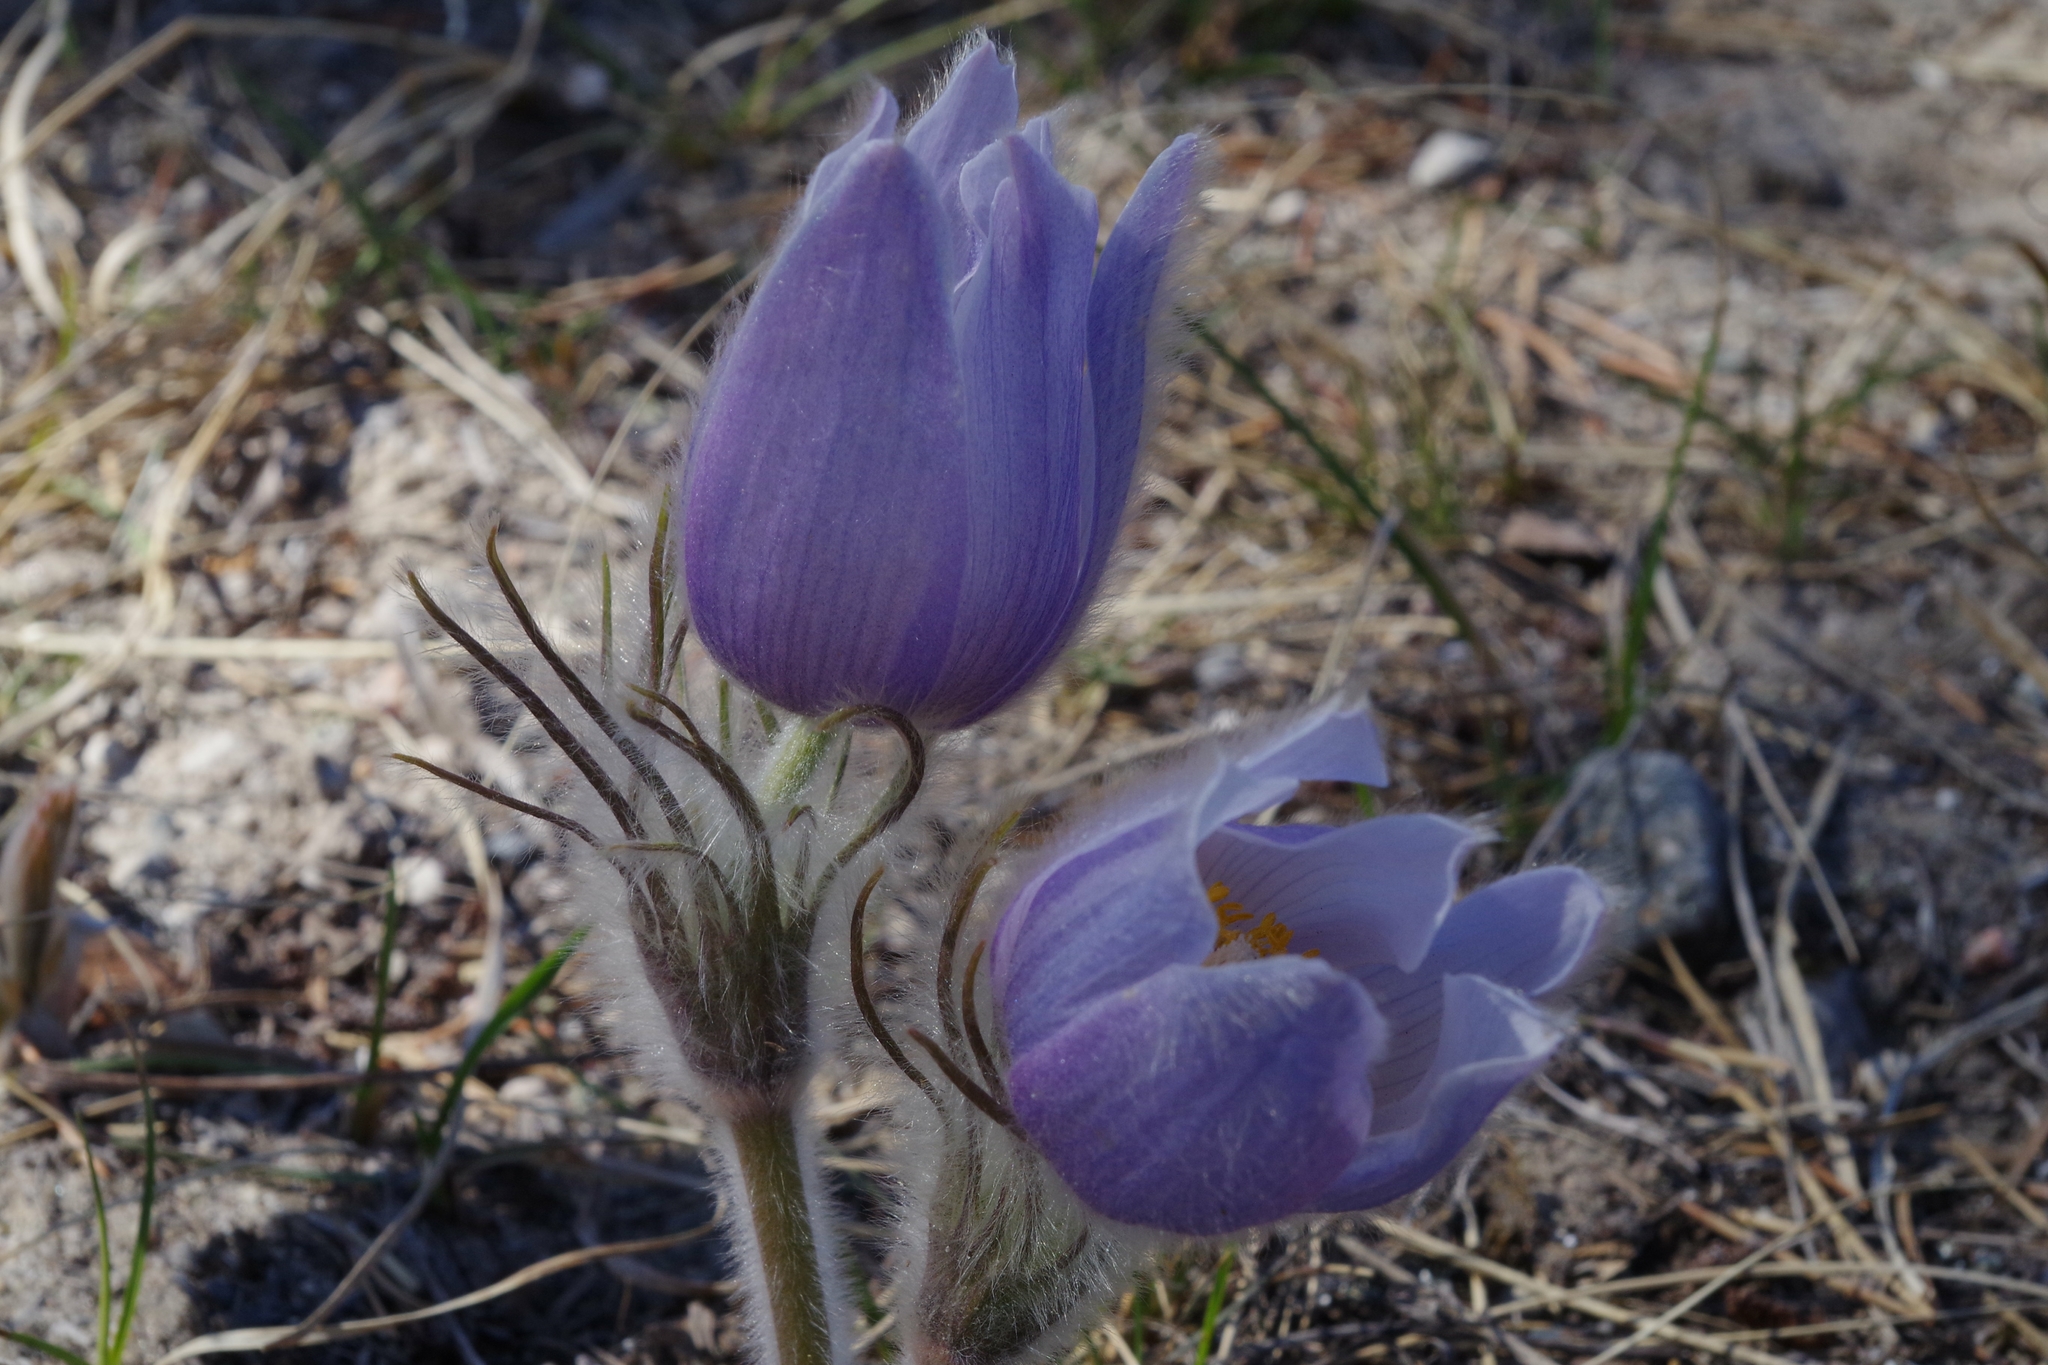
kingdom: Plantae
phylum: Tracheophyta
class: Magnoliopsida
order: Ranunculales
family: Ranunculaceae
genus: Pulsatilla
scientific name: Pulsatilla nuttalliana
